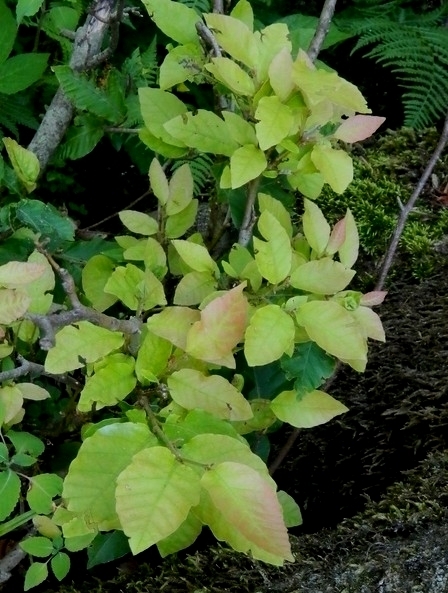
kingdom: Plantae
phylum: Tracheophyta
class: Magnoliopsida
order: Fagales
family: Fagaceae
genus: Fagus
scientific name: Fagus orientalis
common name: Oriental beech
